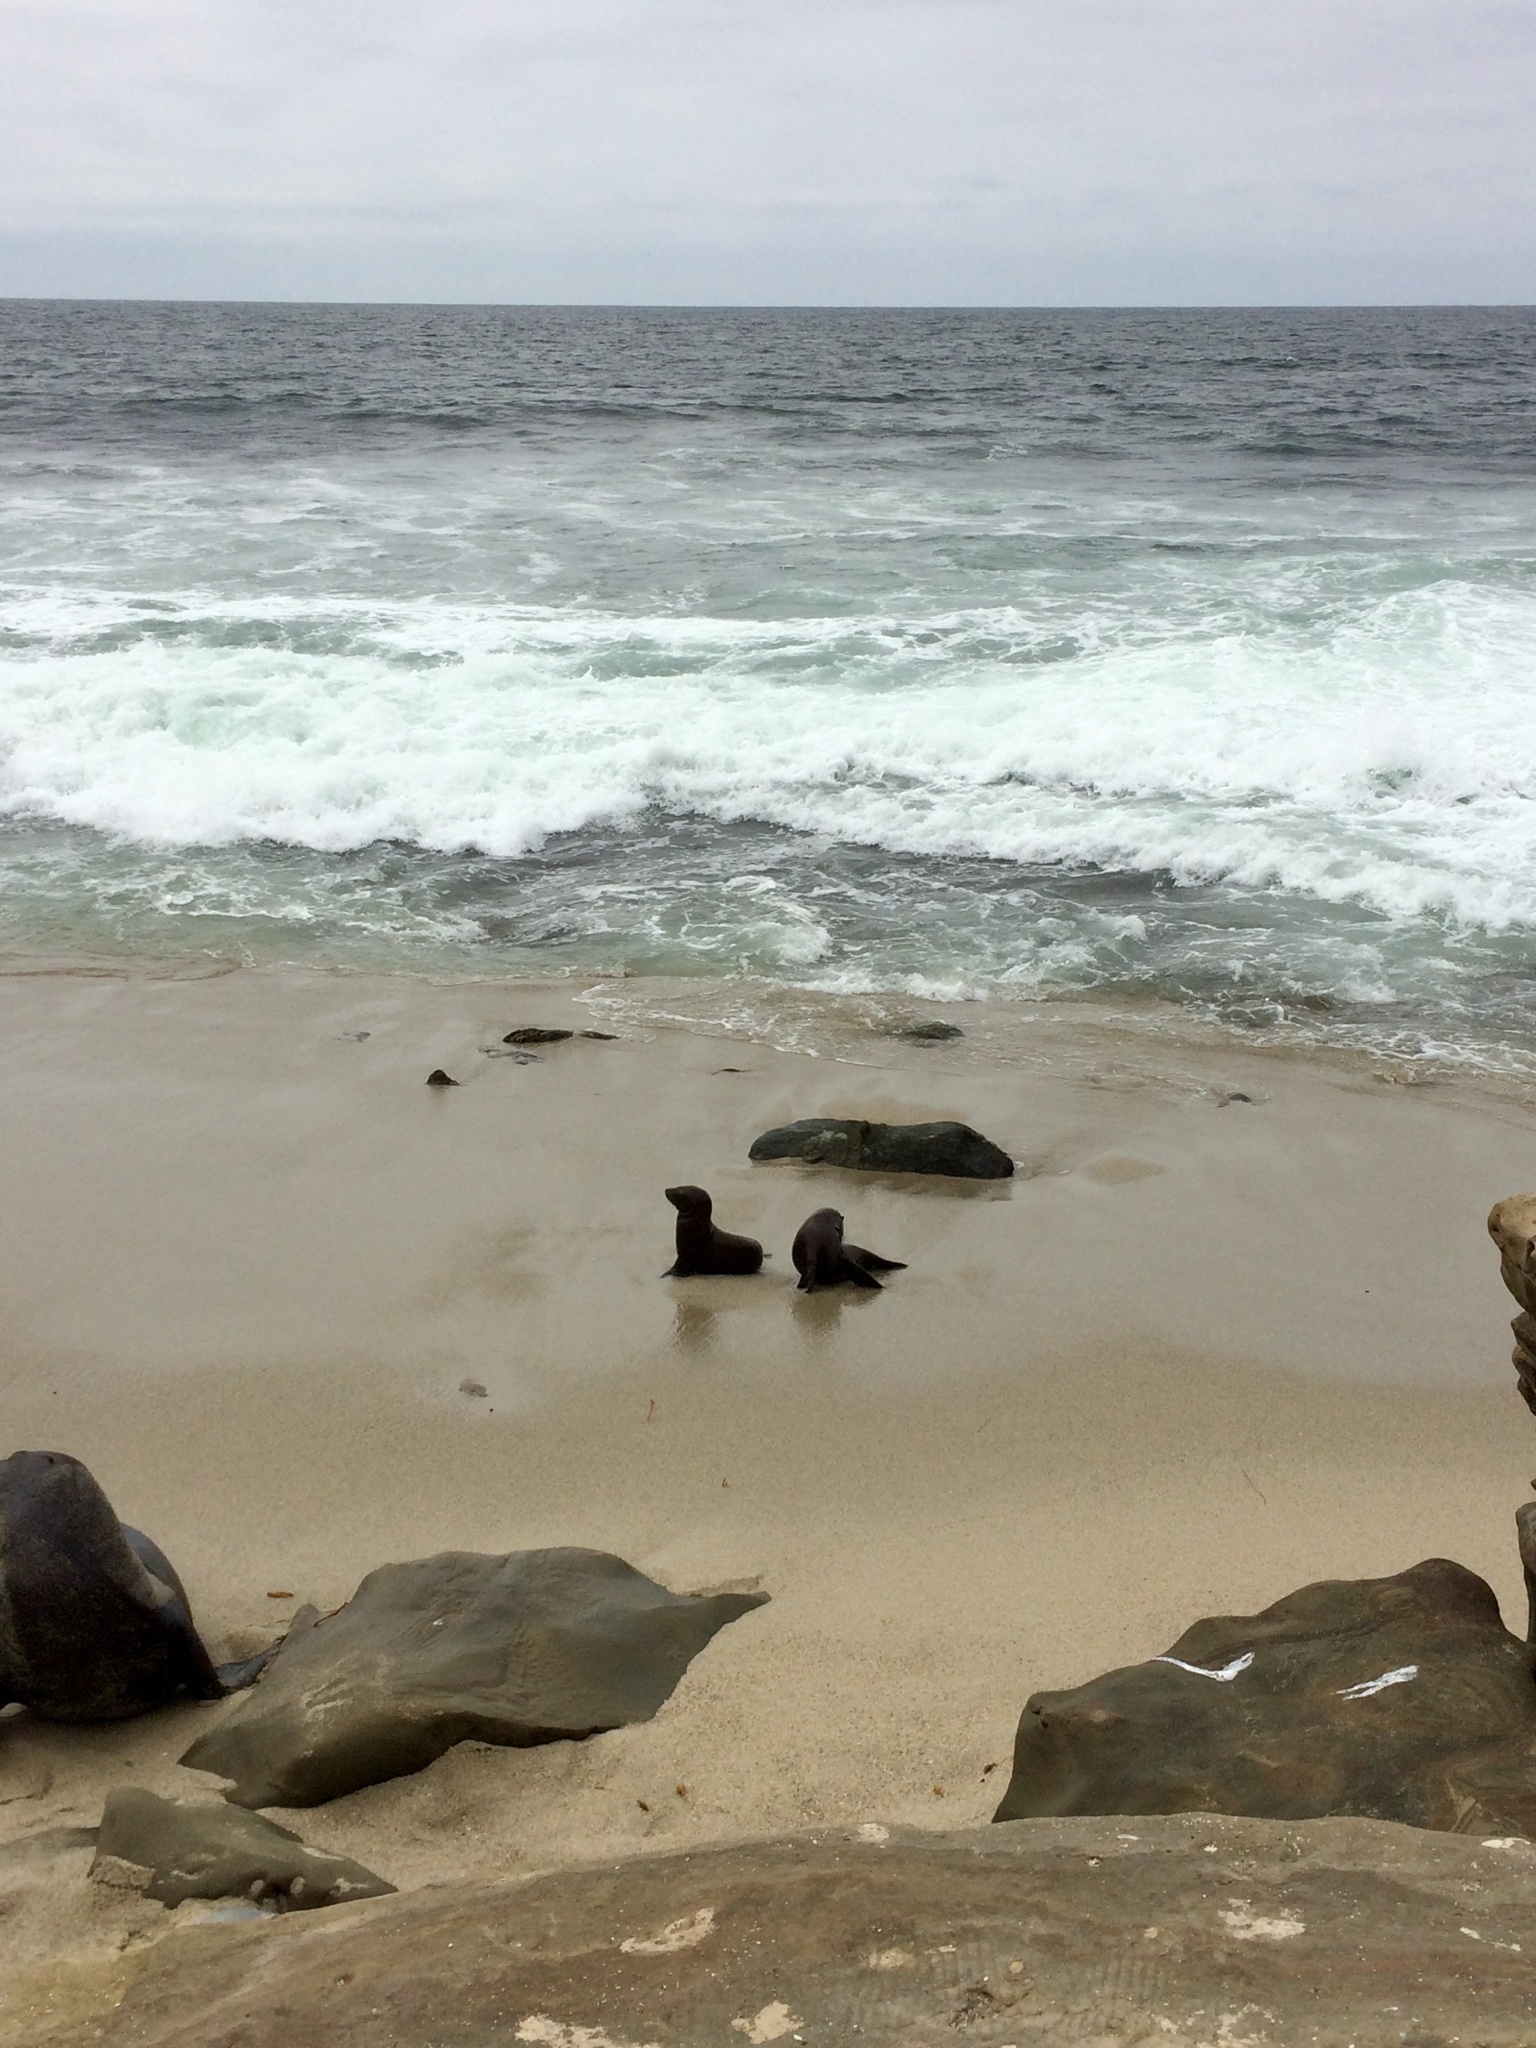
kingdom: Animalia
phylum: Chordata
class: Mammalia
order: Carnivora
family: Otariidae
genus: Zalophus
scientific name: Zalophus californianus
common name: California sea lion
